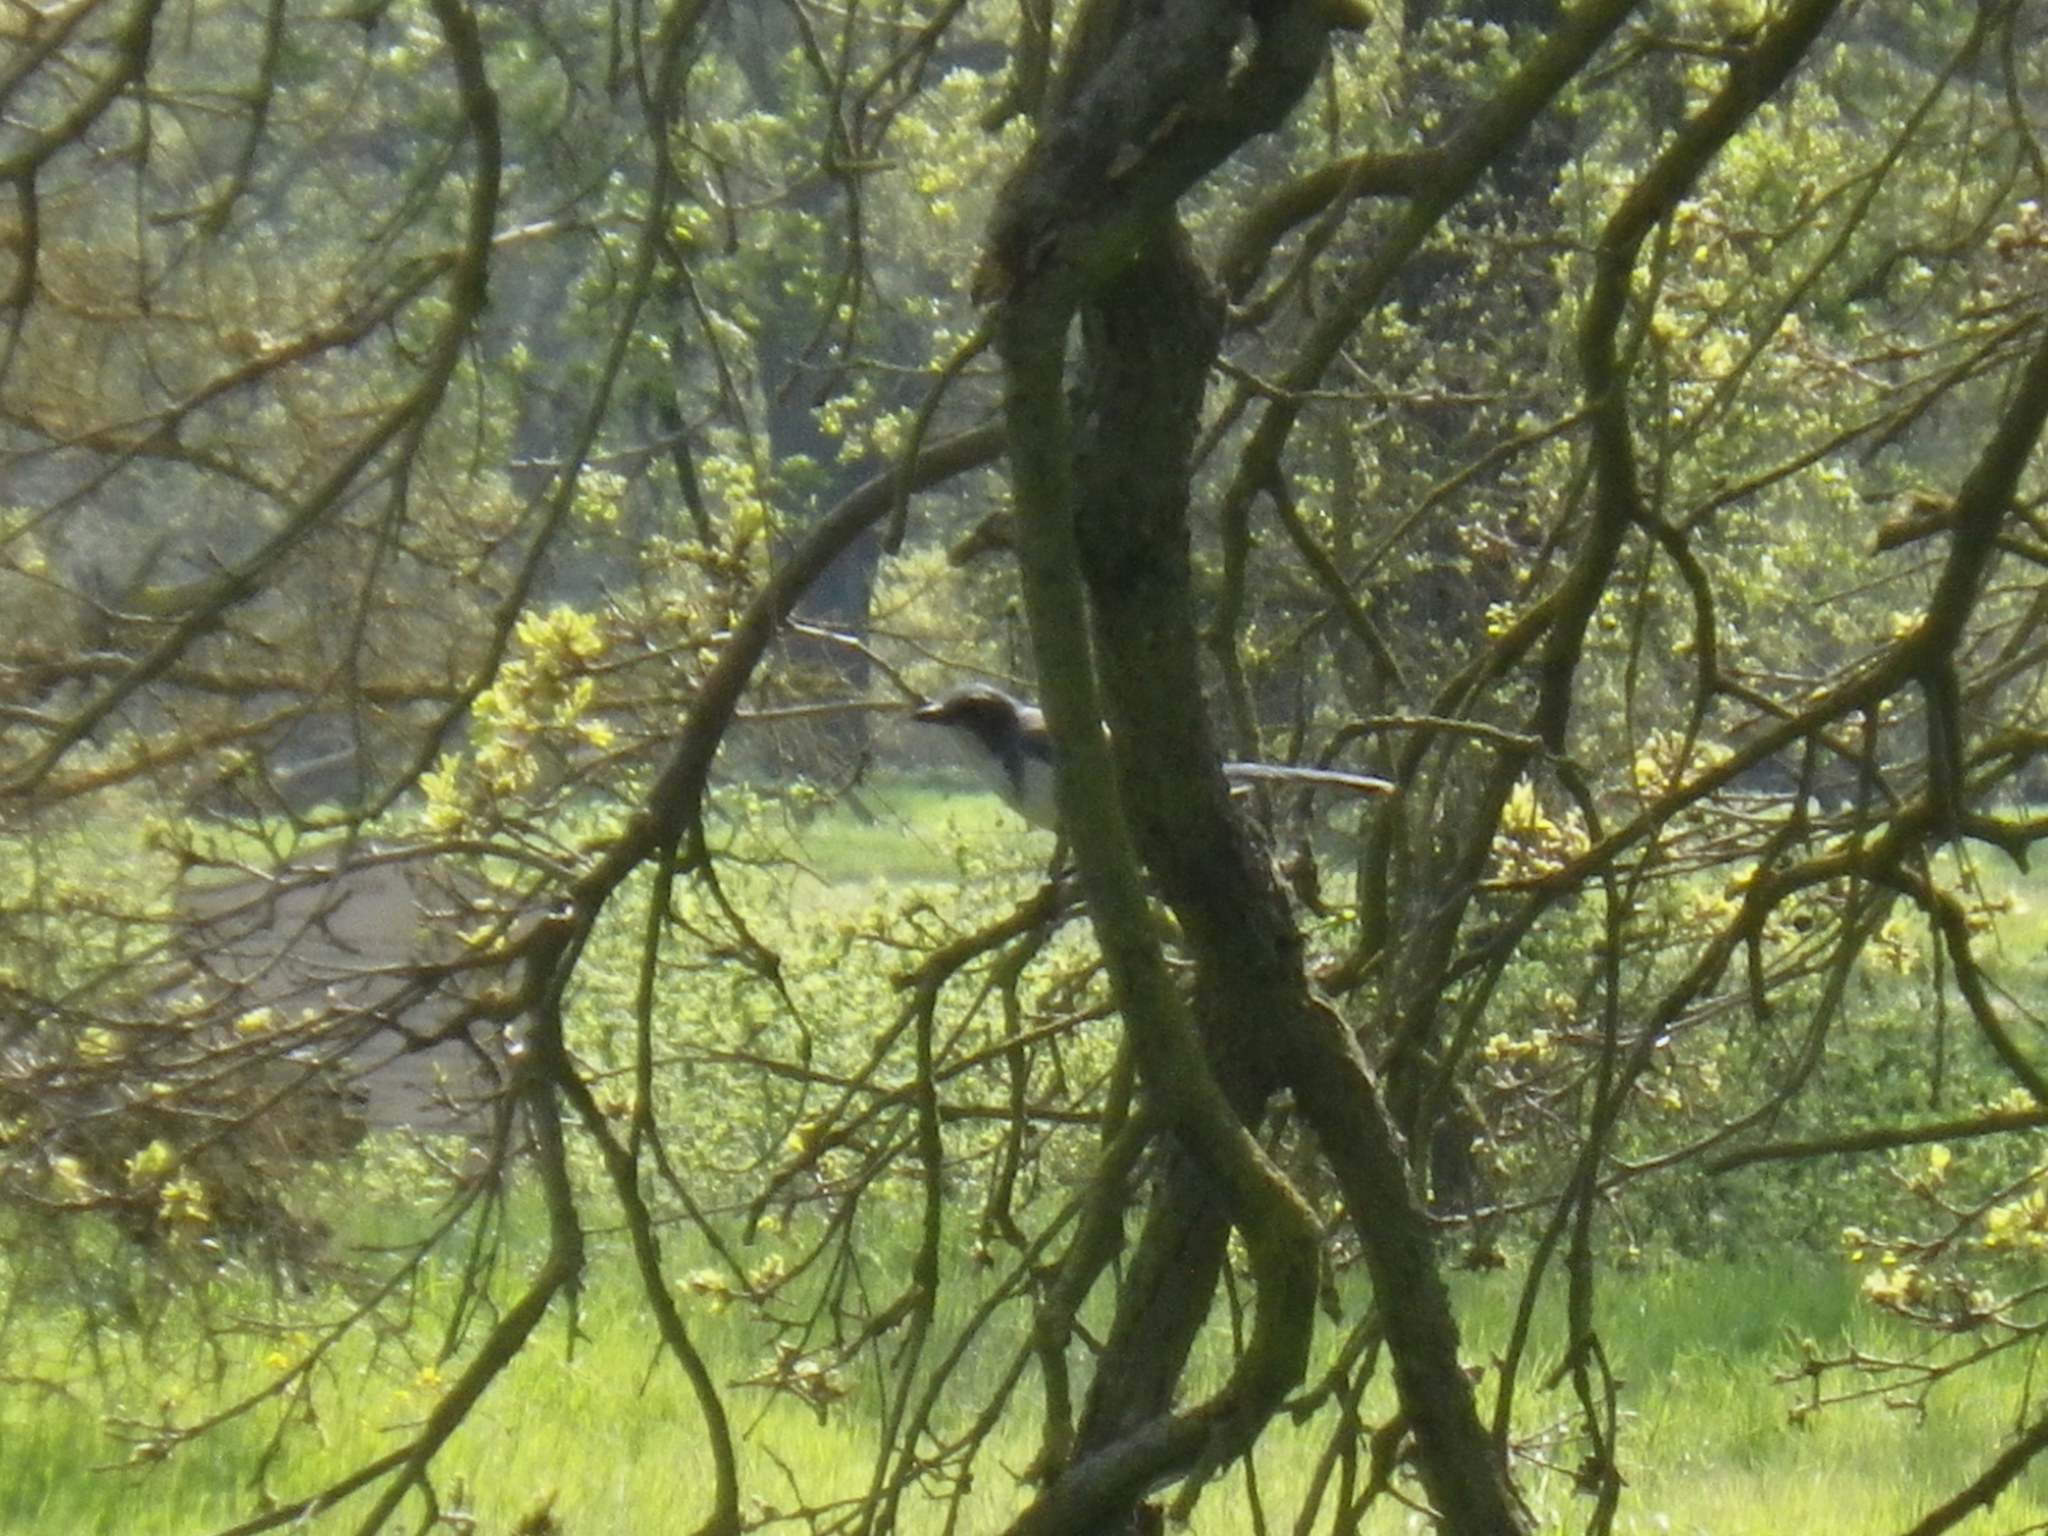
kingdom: Animalia
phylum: Chordata
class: Aves
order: Passeriformes
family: Corvidae
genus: Aphelocoma
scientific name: Aphelocoma californica
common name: California scrub-jay
